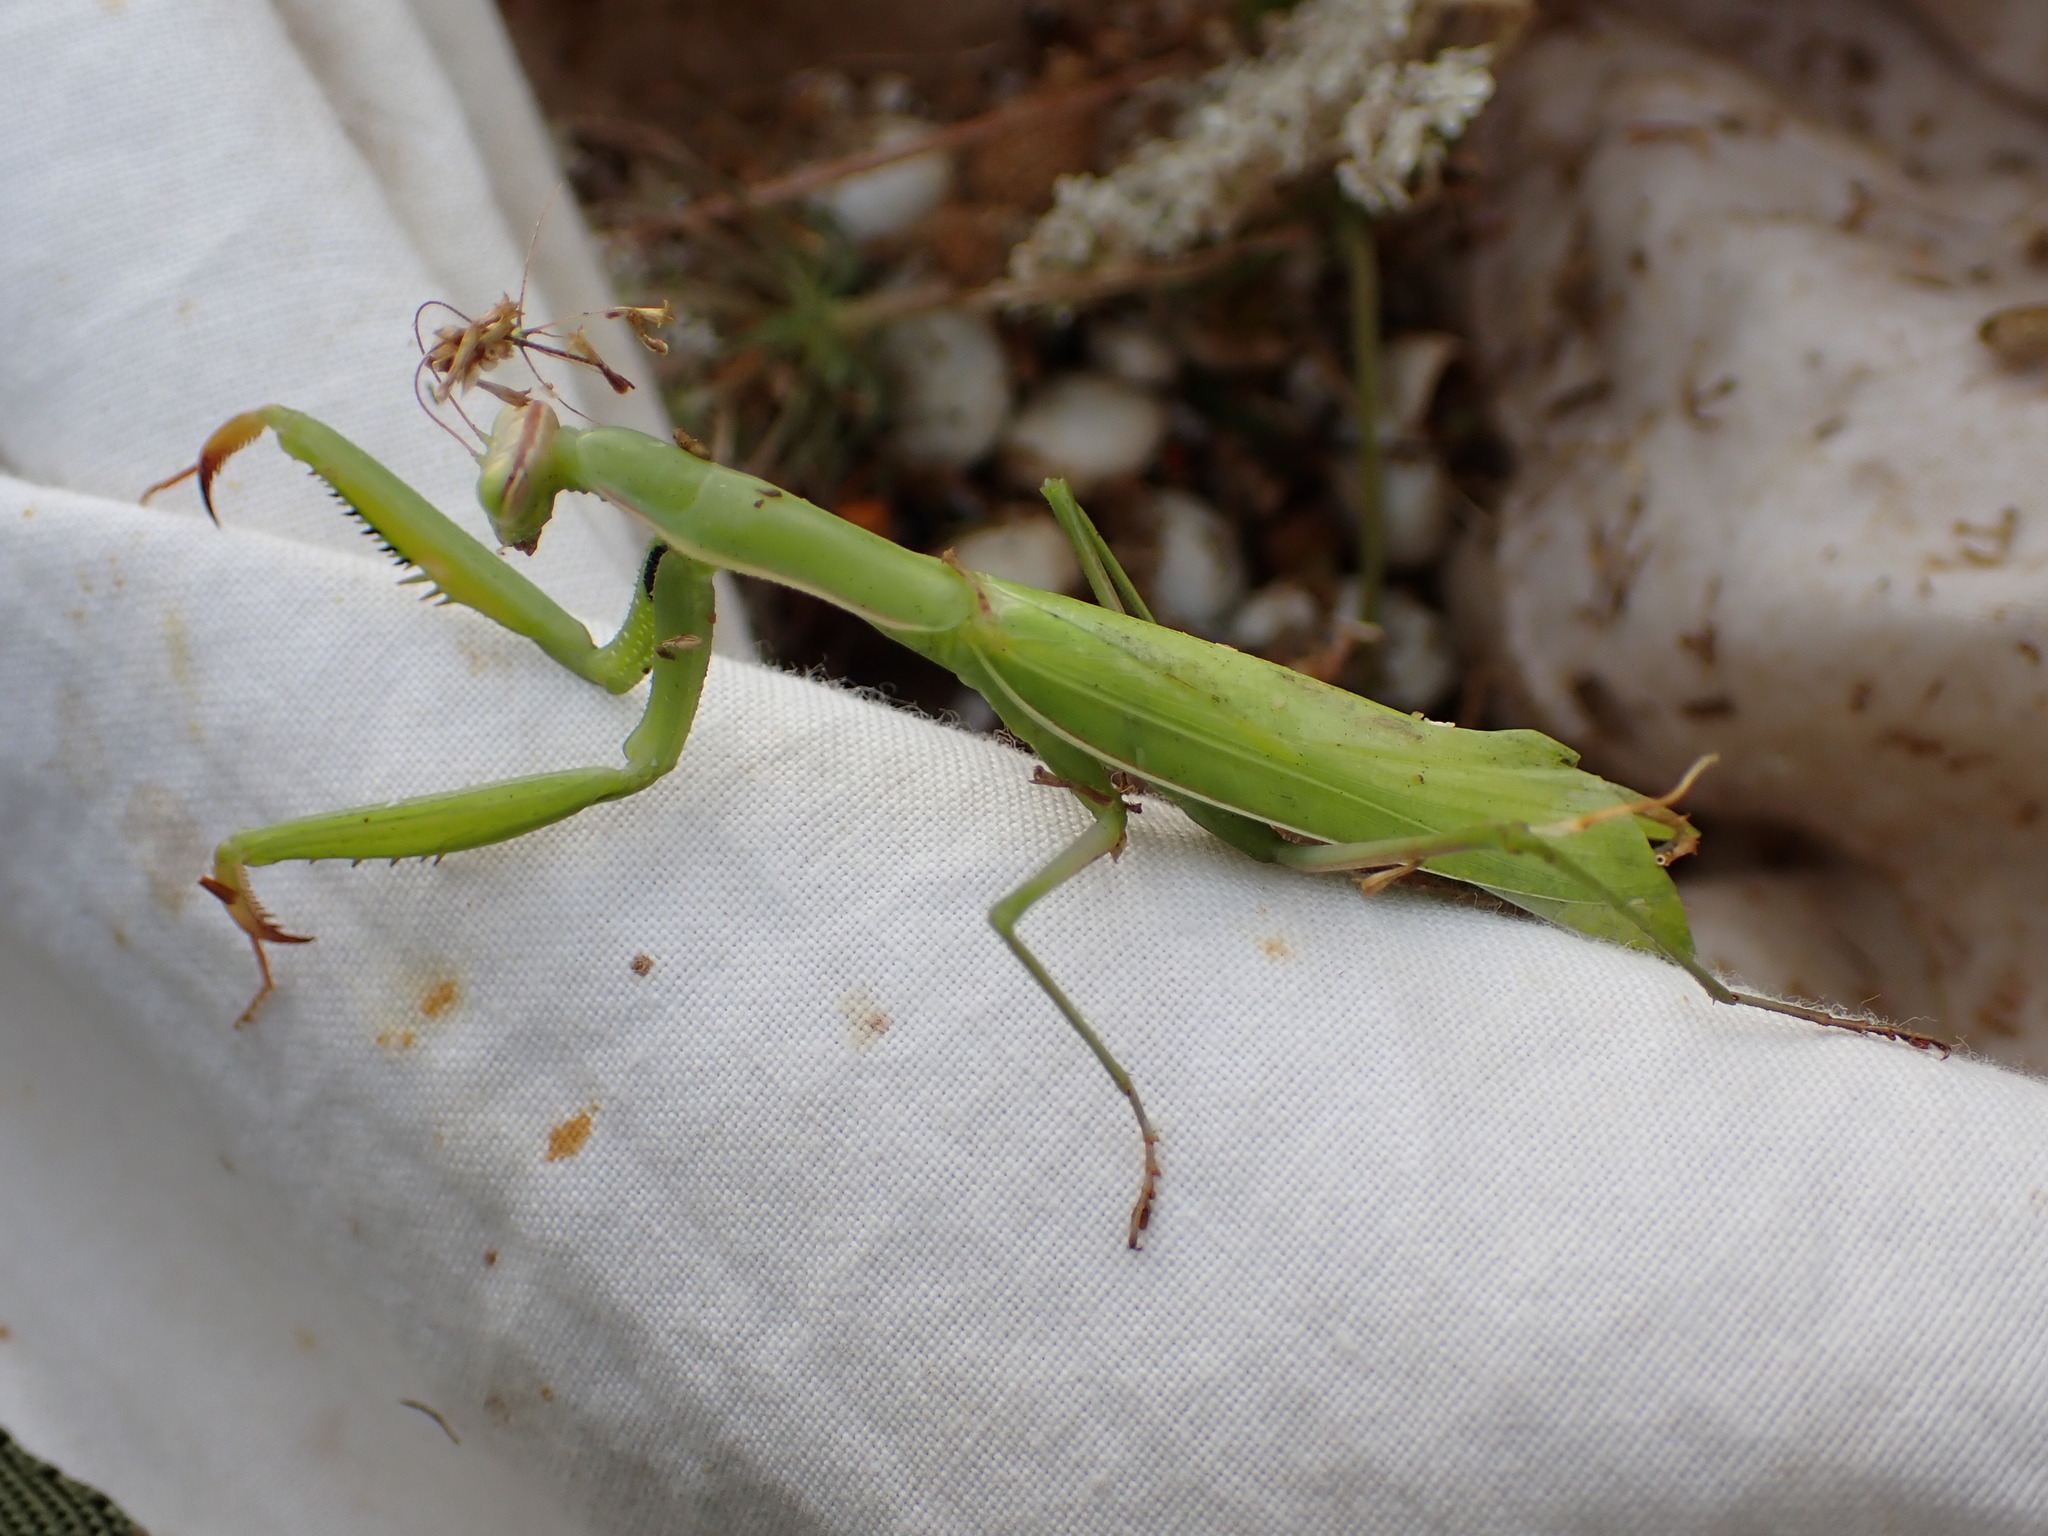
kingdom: Animalia
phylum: Arthropoda
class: Insecta
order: Mantodea
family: Mantidae
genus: Mantis
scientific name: Mantis religiosa
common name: Praying mantis
